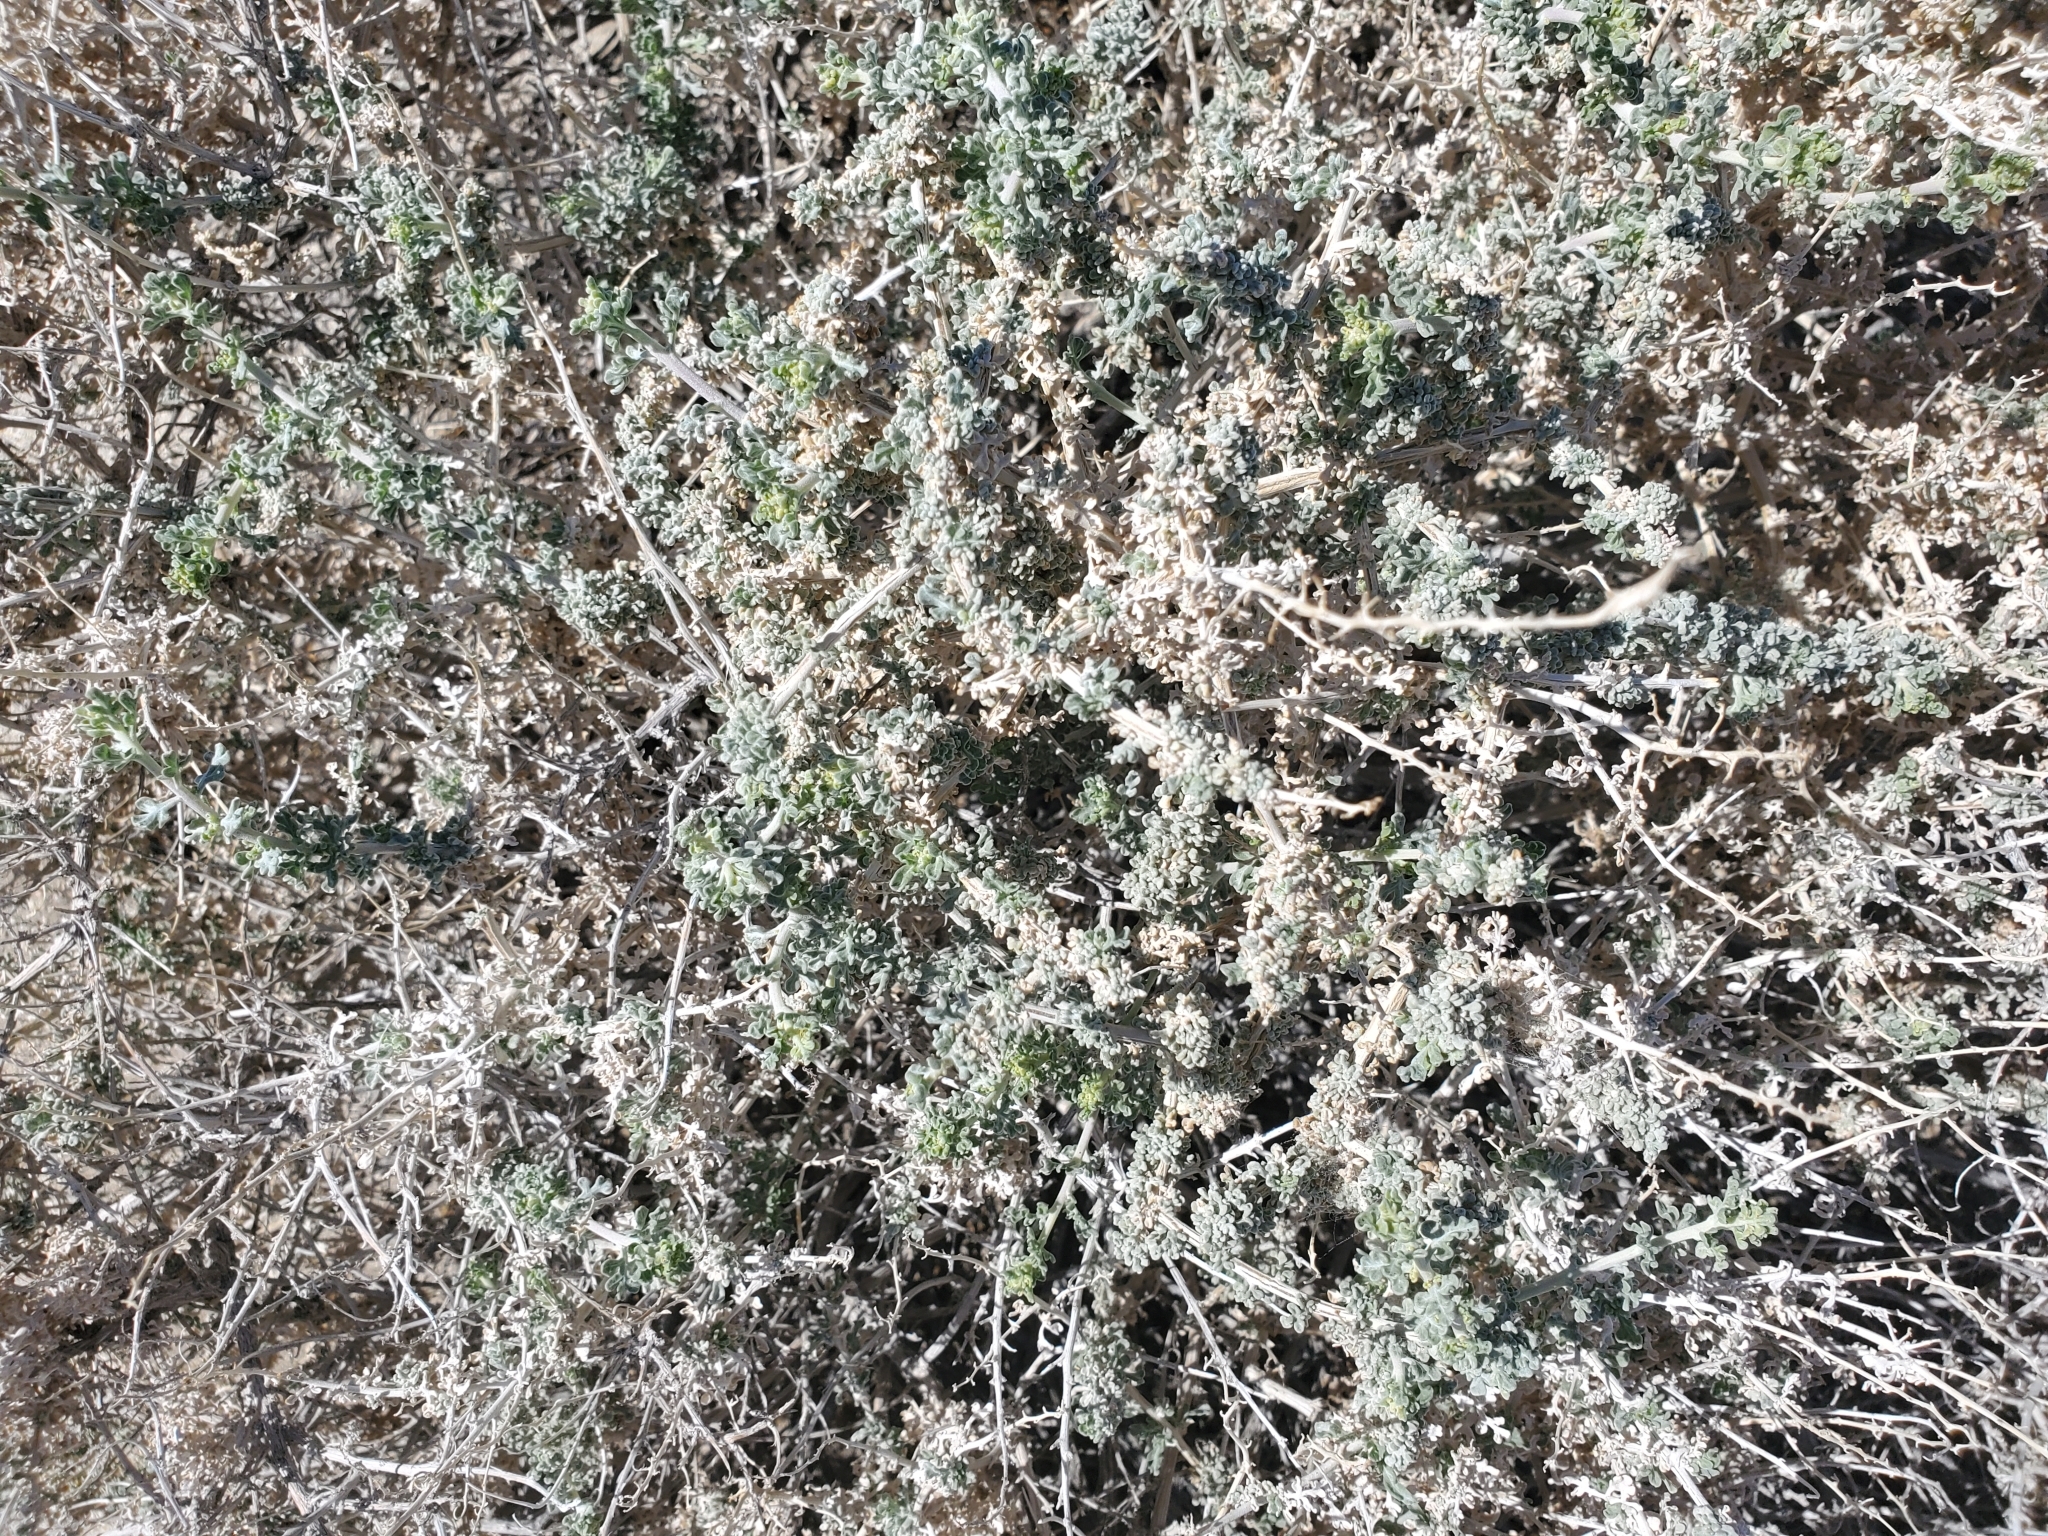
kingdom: Plantae
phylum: Tracheophyta
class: Magnoliopsida
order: Asterales
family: Asteraceae
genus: Ambrosia
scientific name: Ambrosia dumosa
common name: Bur-sage
